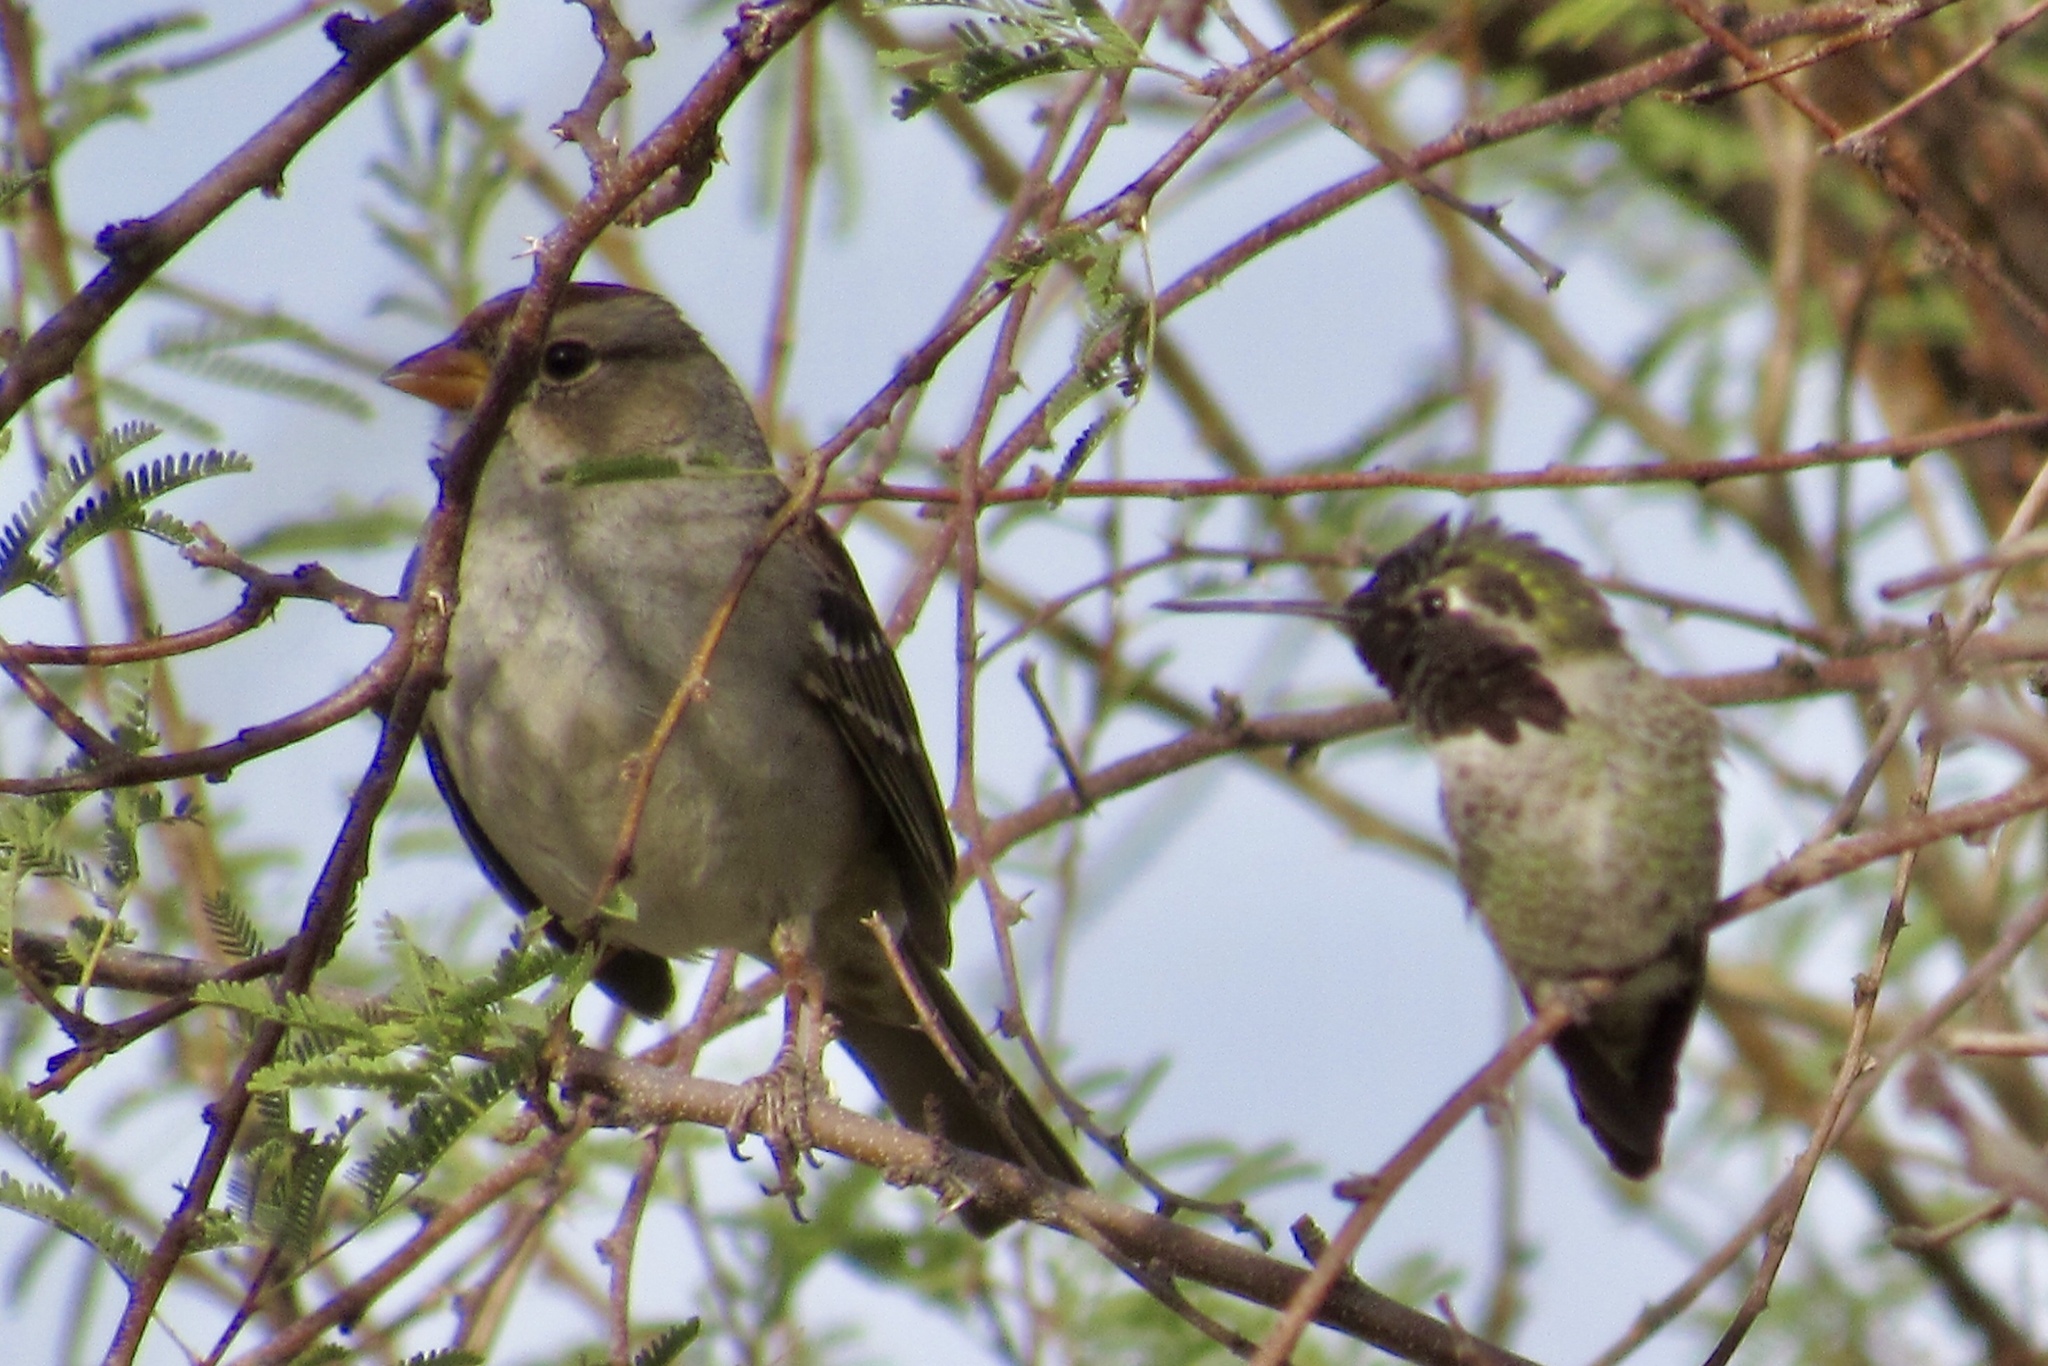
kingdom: Animalia
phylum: Chordata
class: Aves
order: Apodiformes
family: Trochilidae
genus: Calypte
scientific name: Calypte anna
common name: Anna's hummingbird
